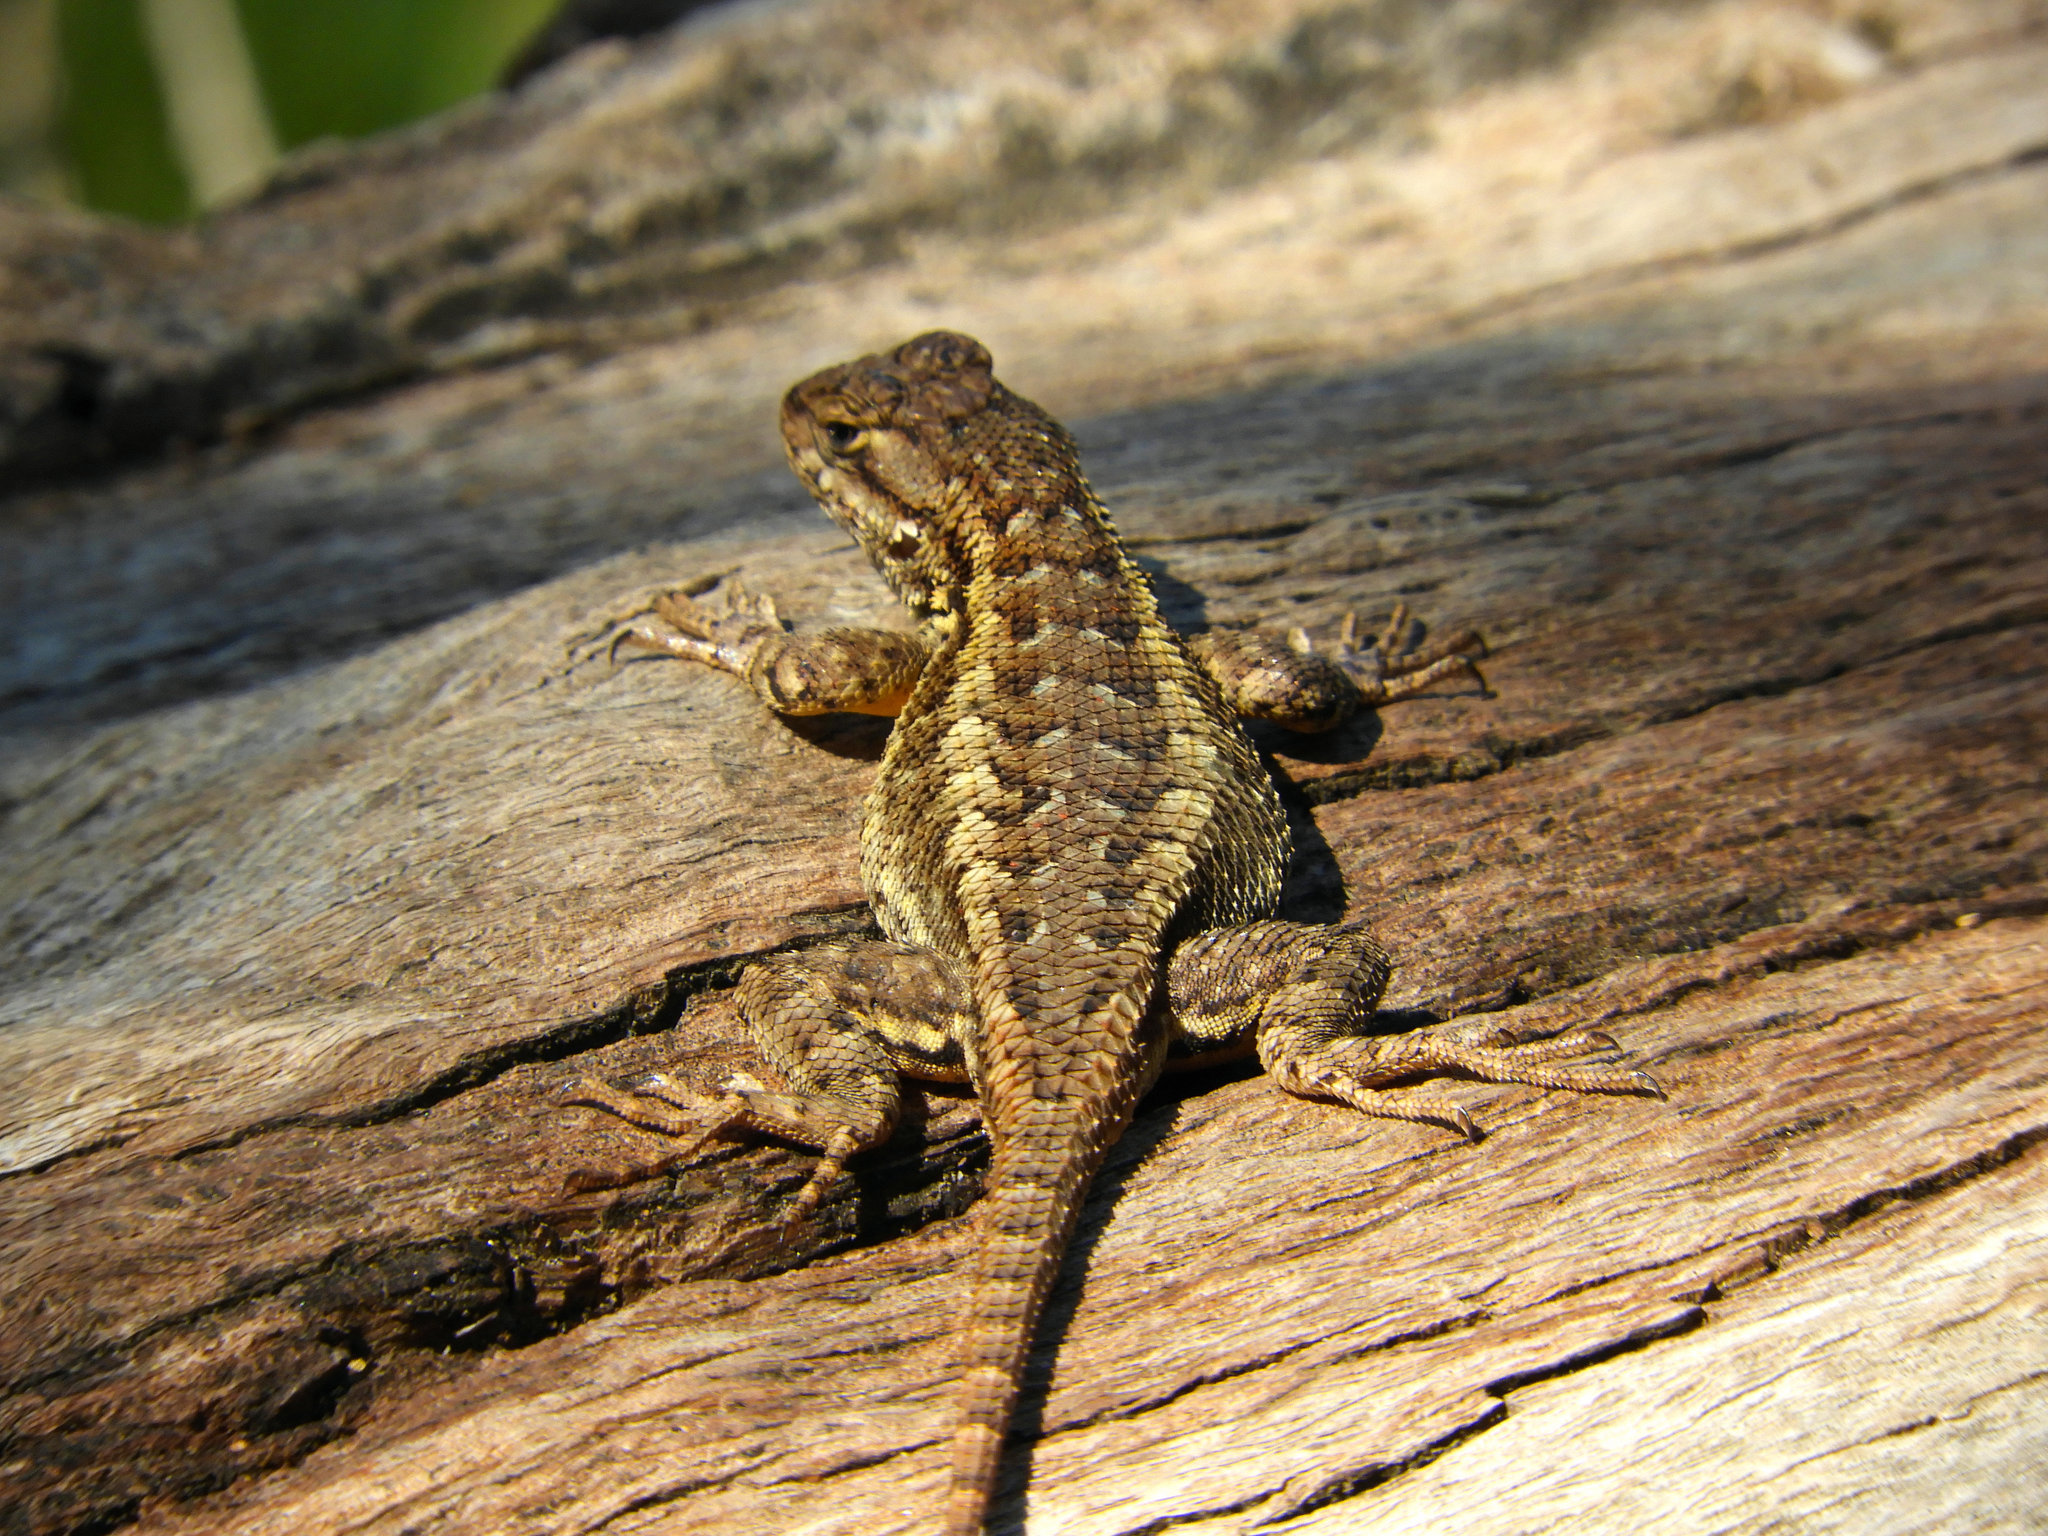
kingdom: Animalia
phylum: Chordata
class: Squamata
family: Phrynosomatidae
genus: Sceloporus
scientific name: Sceloporus occidentalis
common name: Western fence lizard
